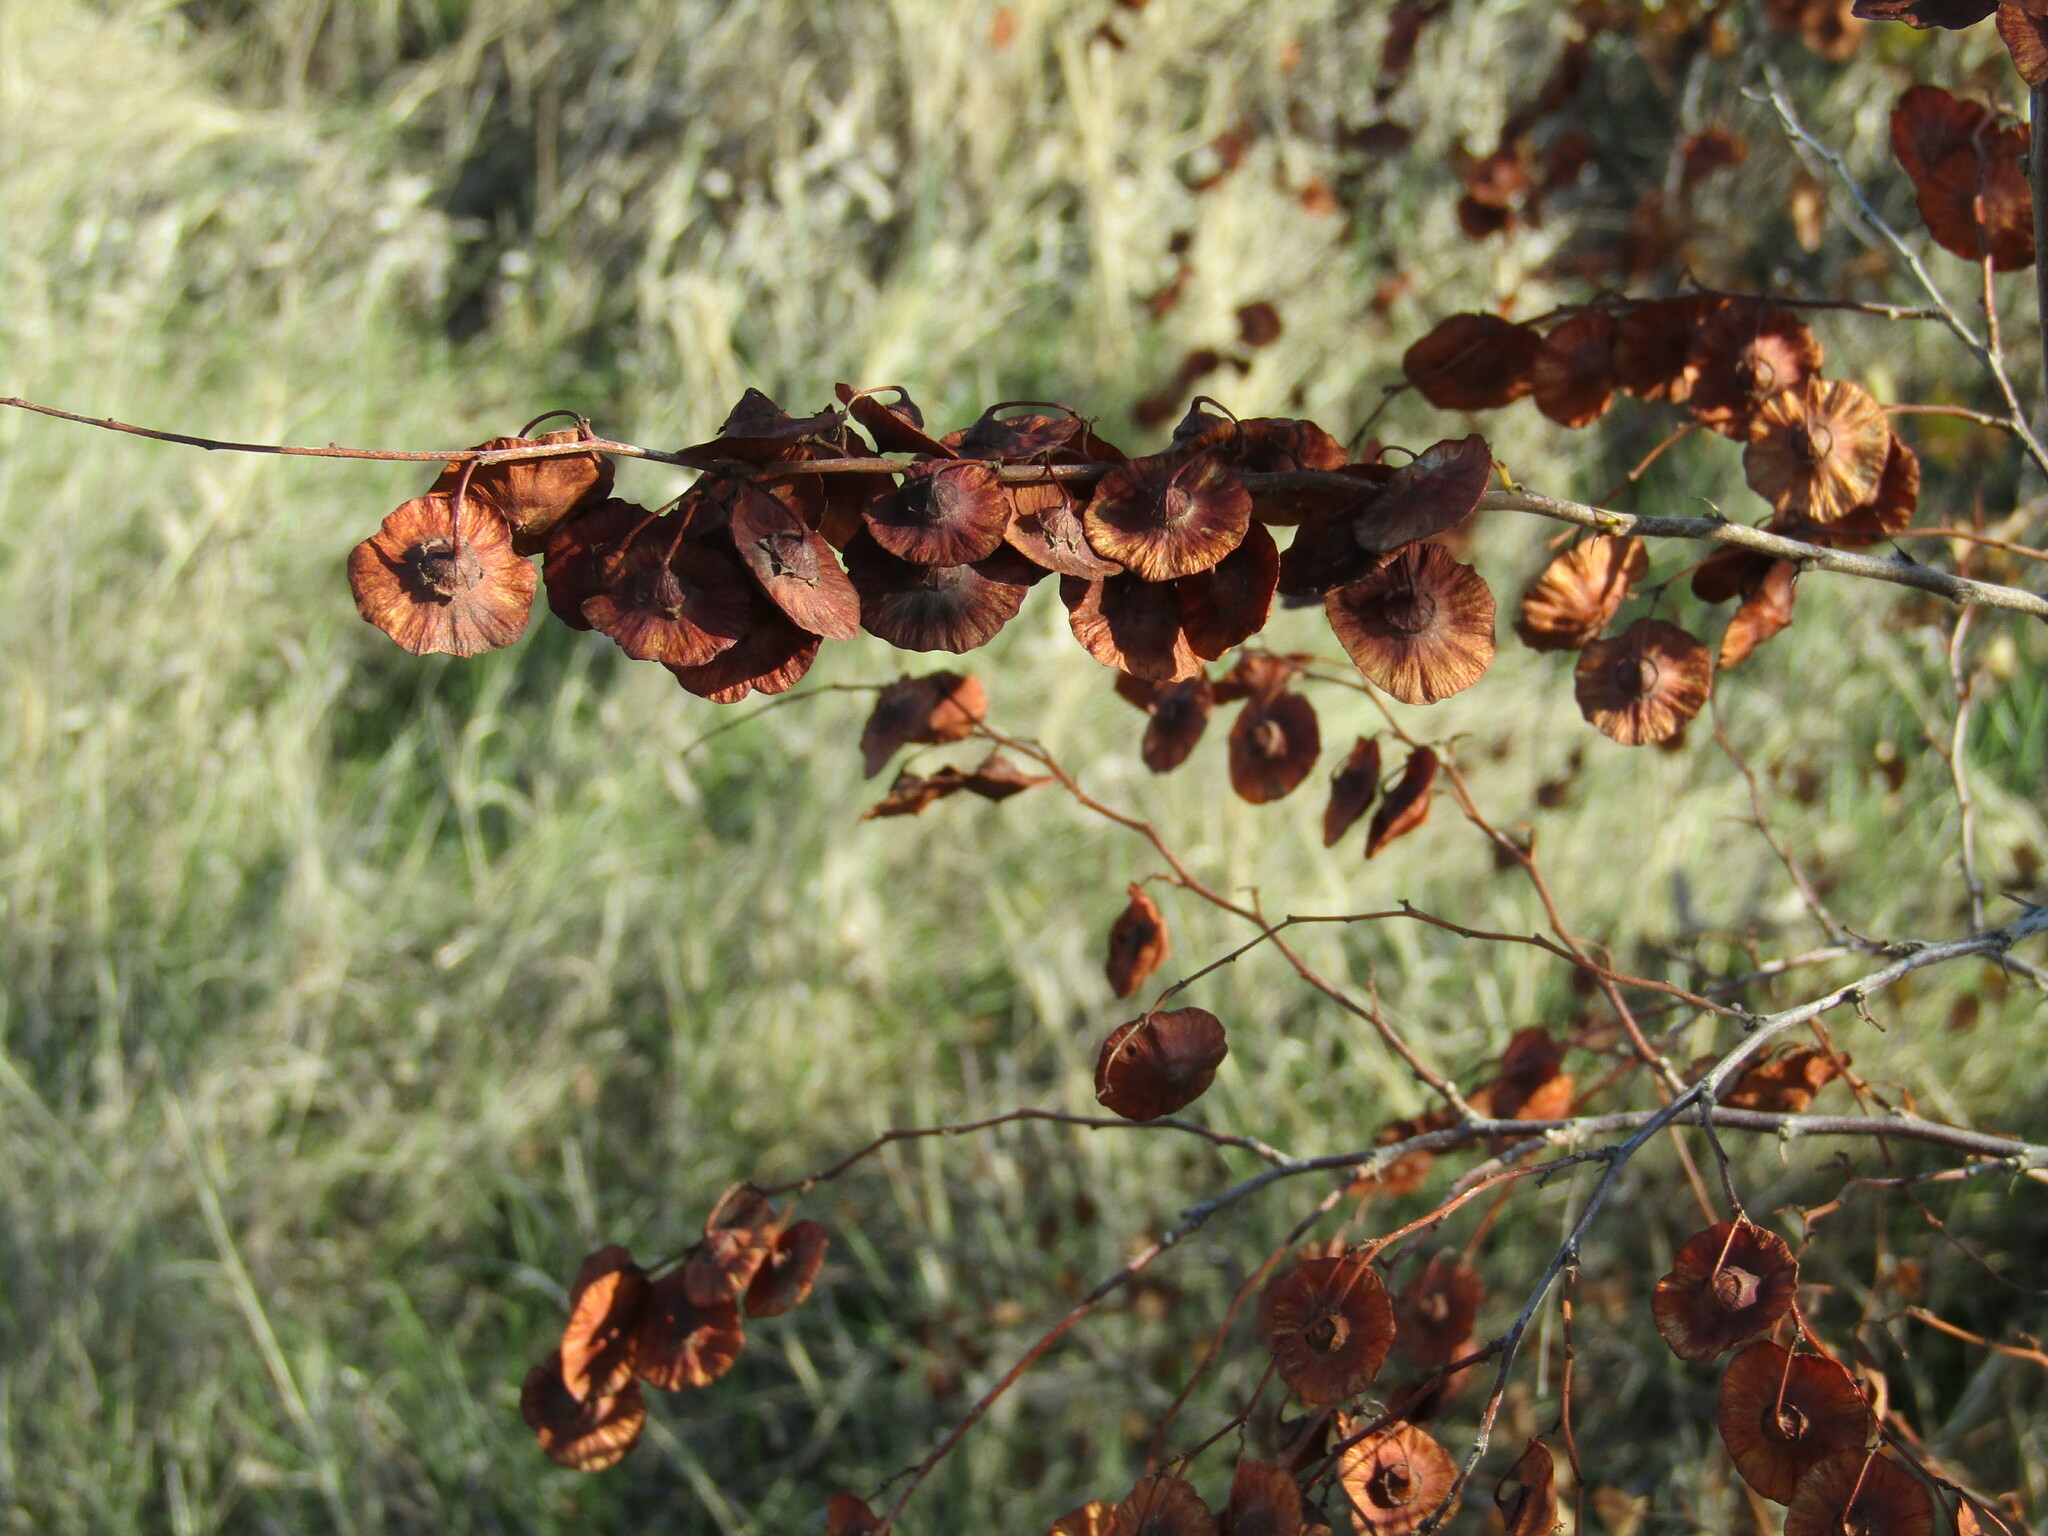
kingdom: Plantae
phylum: Tracheophyta
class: Magnoliopsida
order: Rosales
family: Rhamnaceae
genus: Paliurus
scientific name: Paliurus spina-christi
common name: Jeruselem thorn
